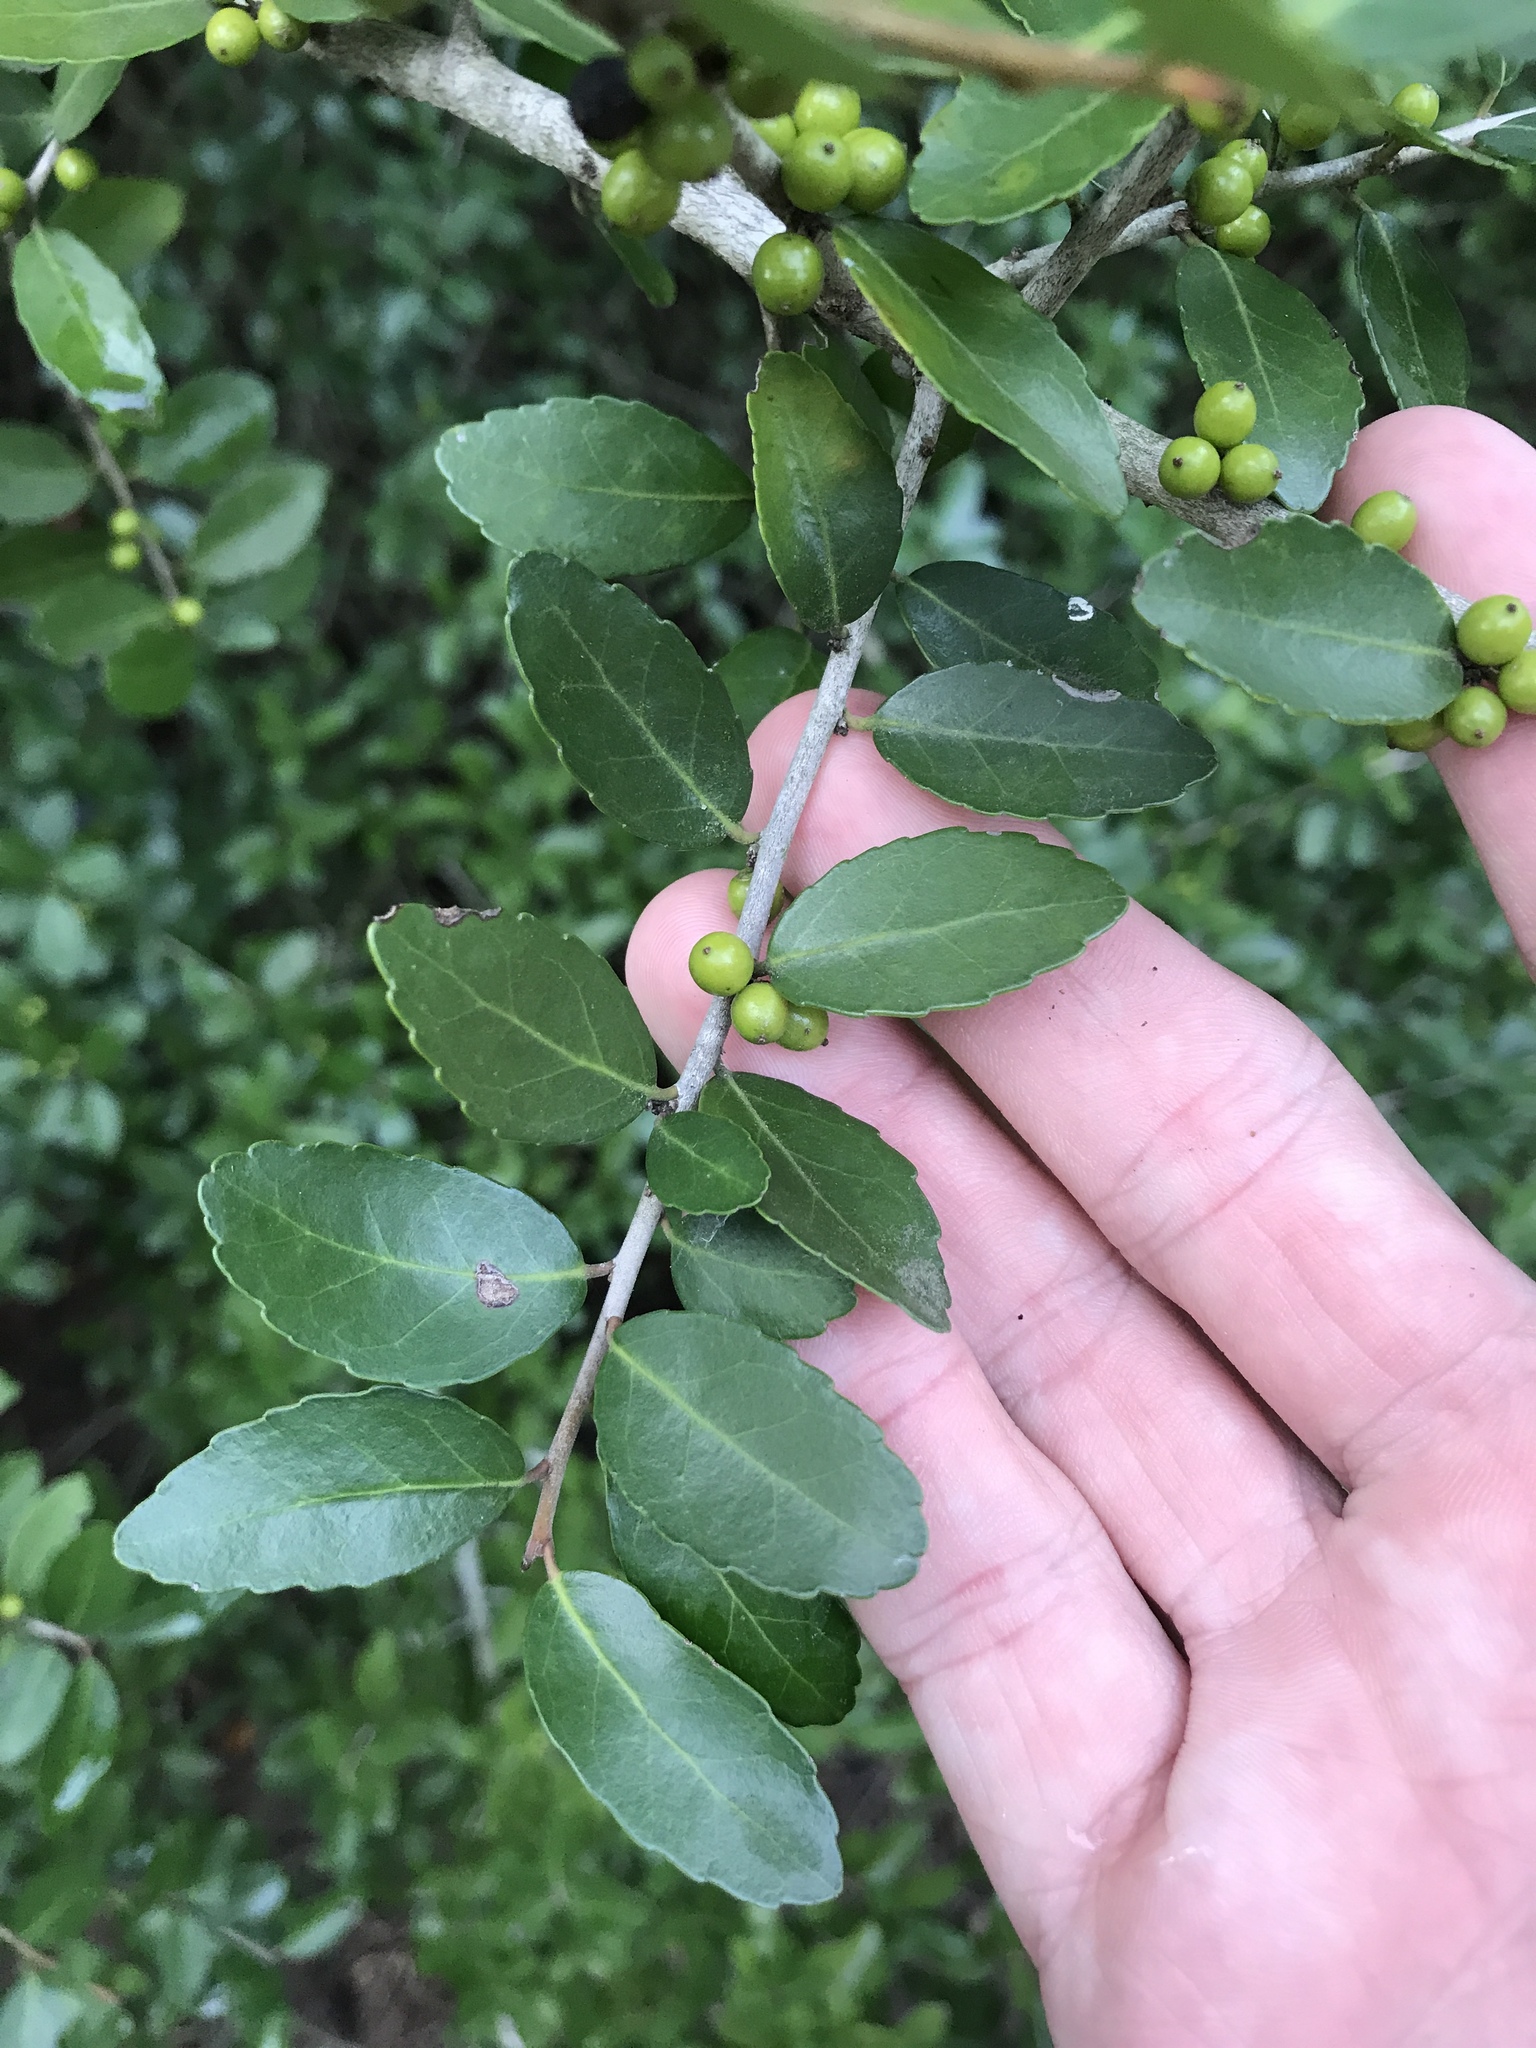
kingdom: Plantae
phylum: Tracheophyta
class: Magnoliopsida
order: Aquifoliales
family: Aquifoliaceae
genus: Ilex
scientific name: Ilex vomitoria
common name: Yaupon holly
